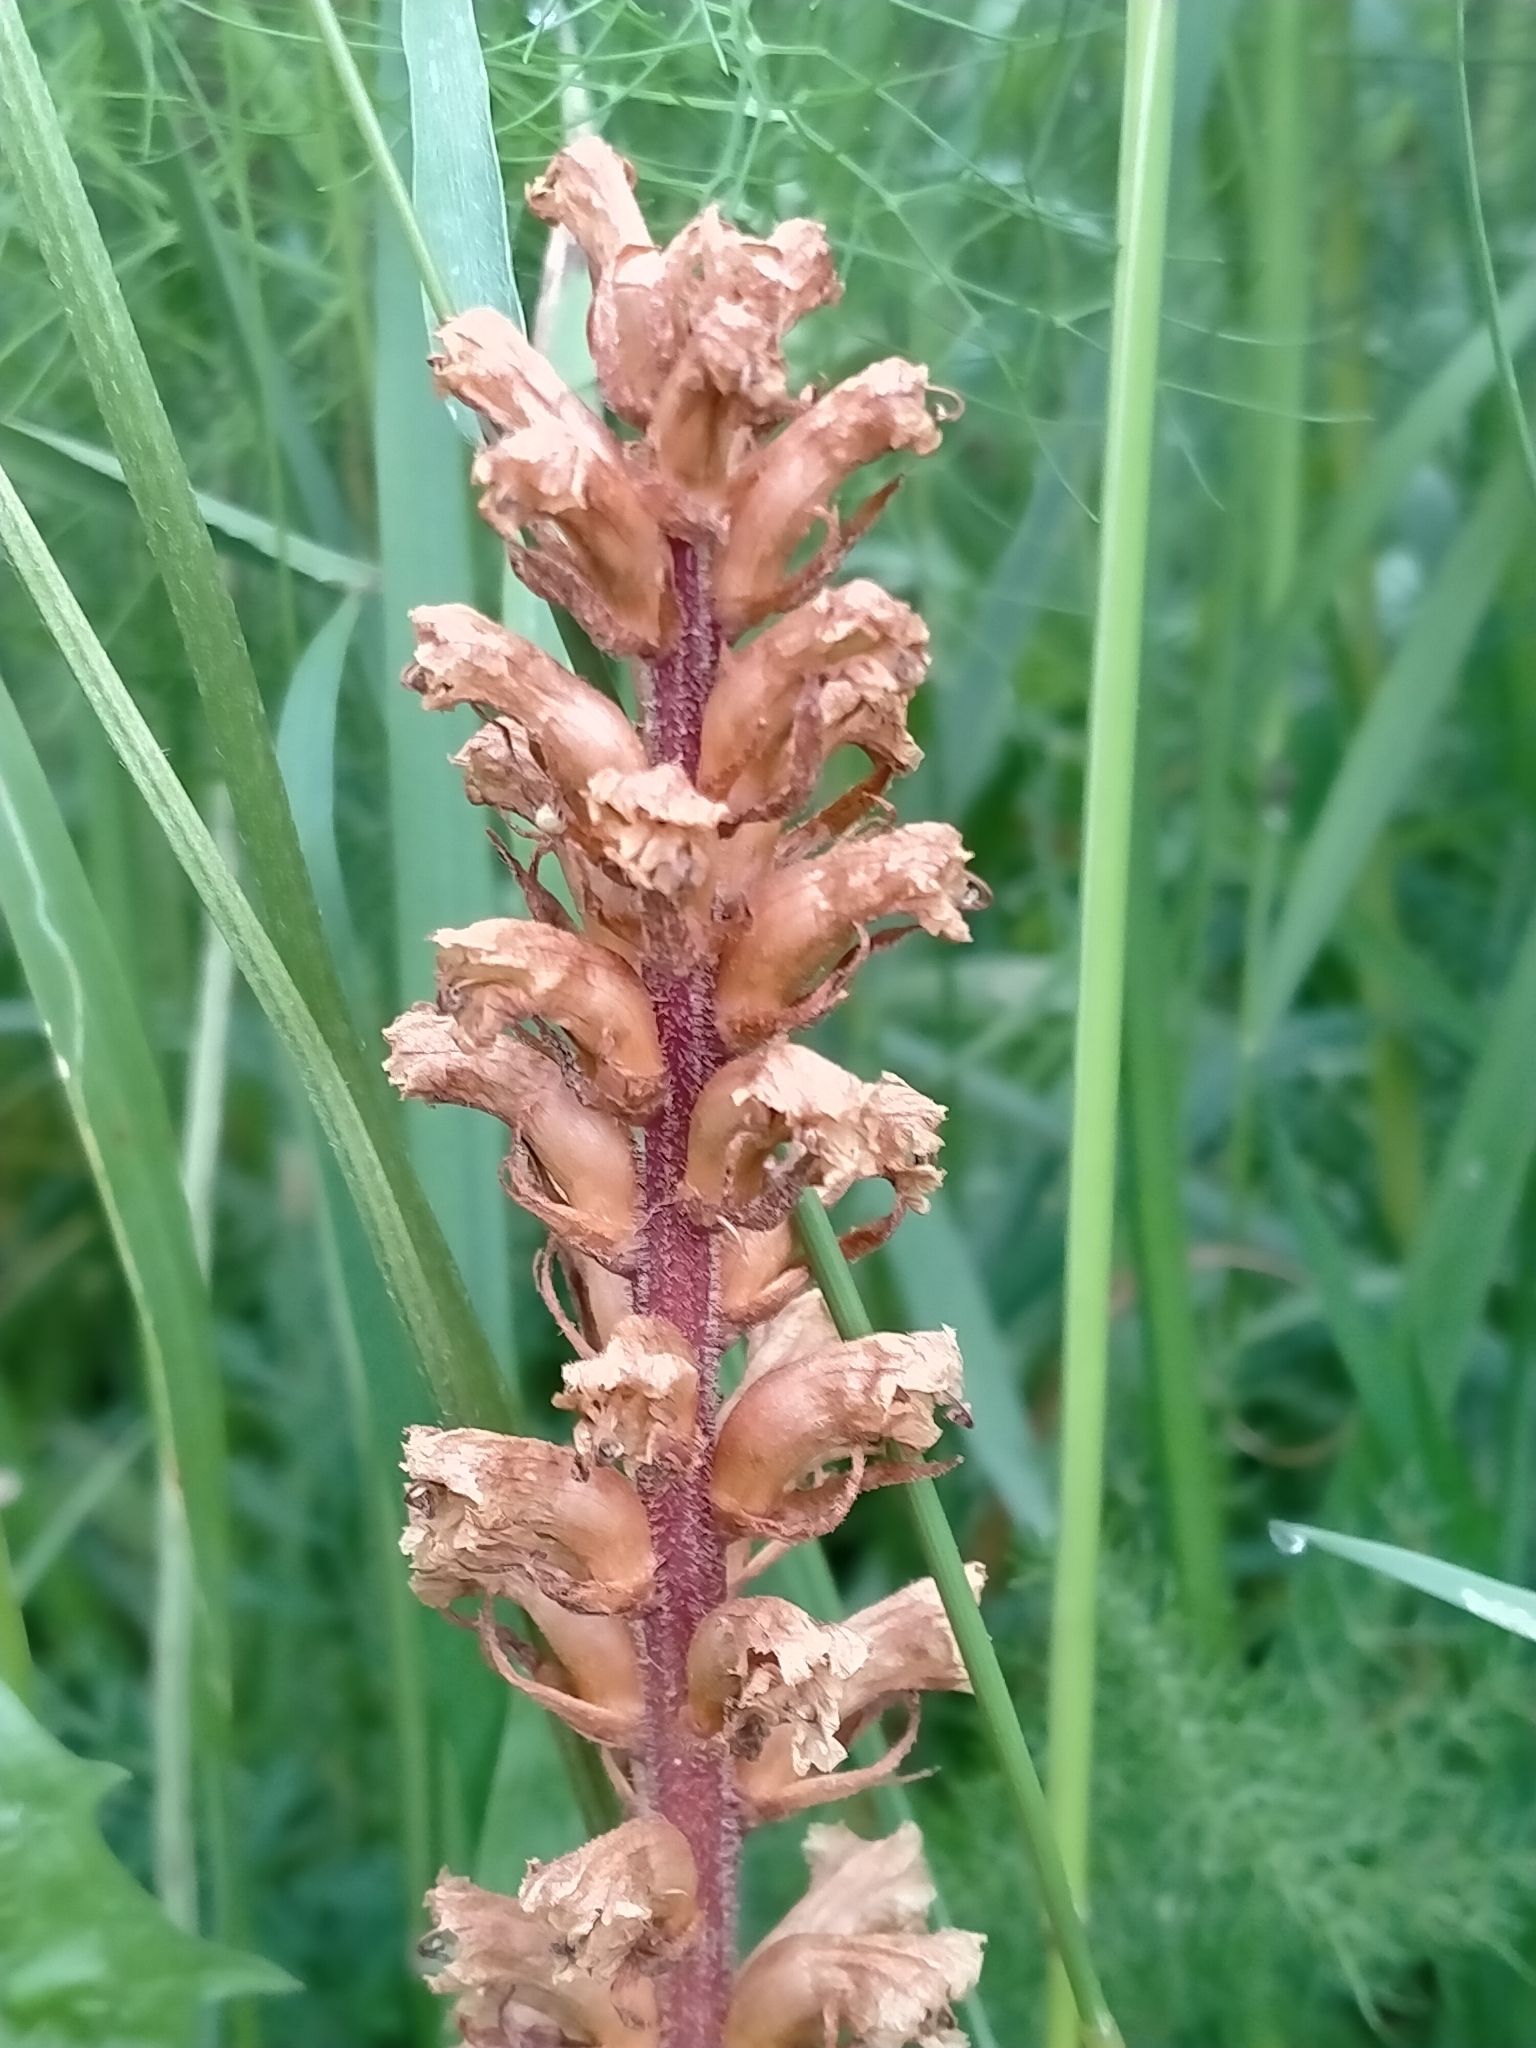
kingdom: Plantae
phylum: Tracheophyta
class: Magnoliopsida
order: Lamiales
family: Orobanchaceae
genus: Orobanche
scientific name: Orobanche minor
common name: Common broomrape
